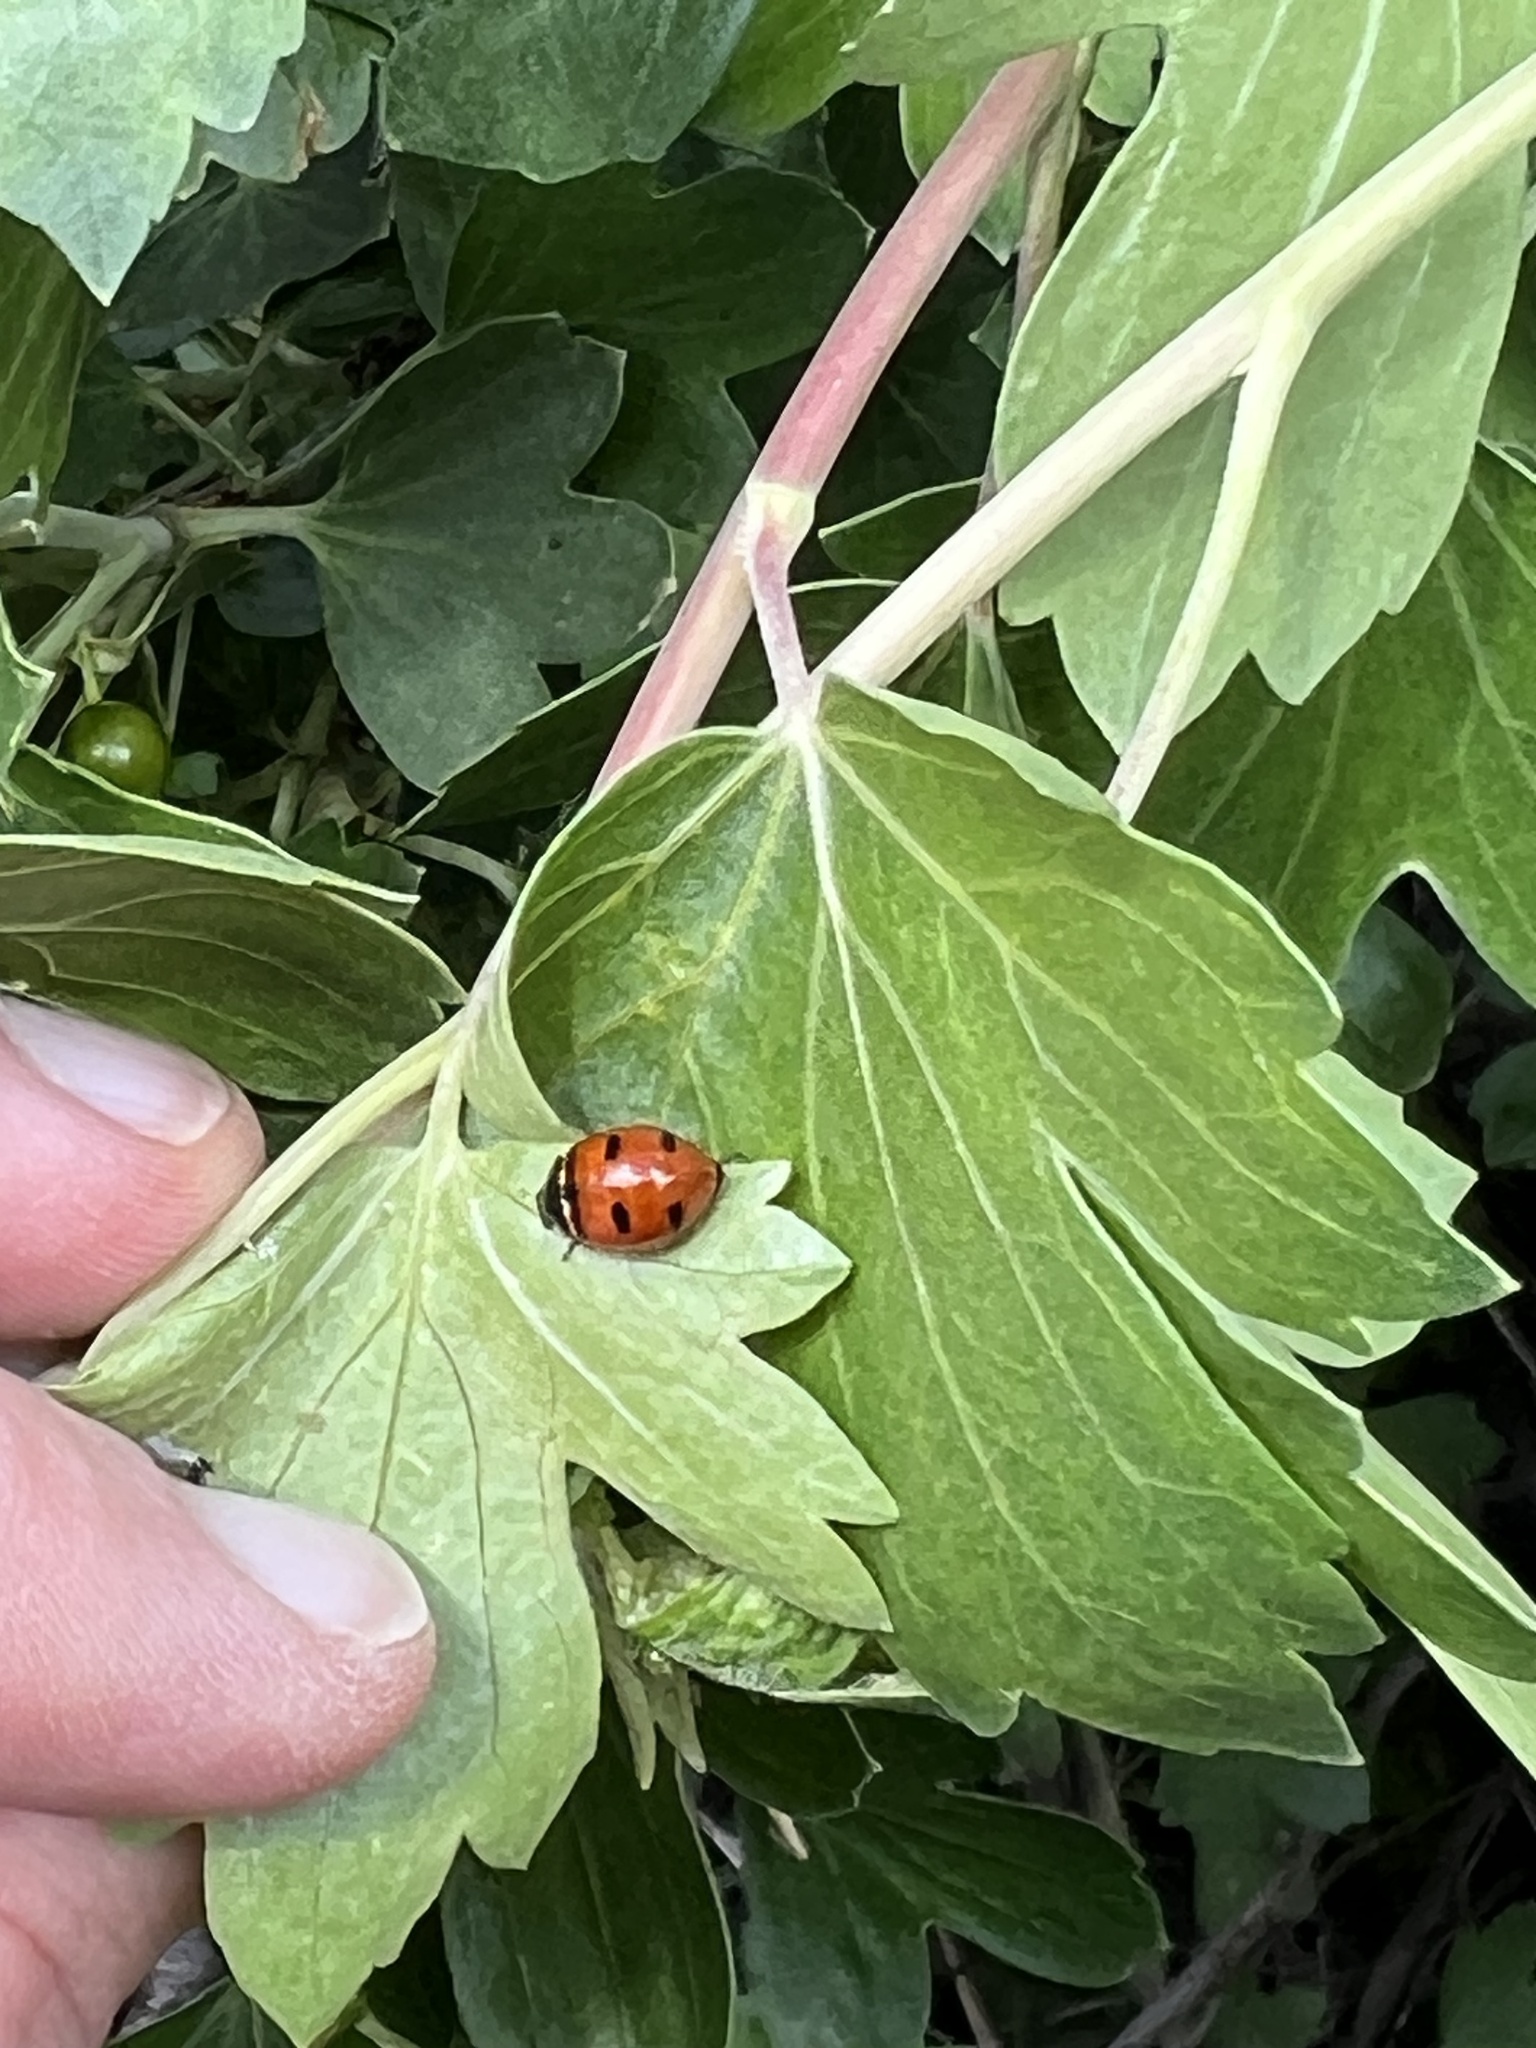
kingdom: Animalia
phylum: Arthropoda
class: Insecta
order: Coleoptera
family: Coccinellidae
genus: Coccinella
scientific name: Coccinella transversoguttata
